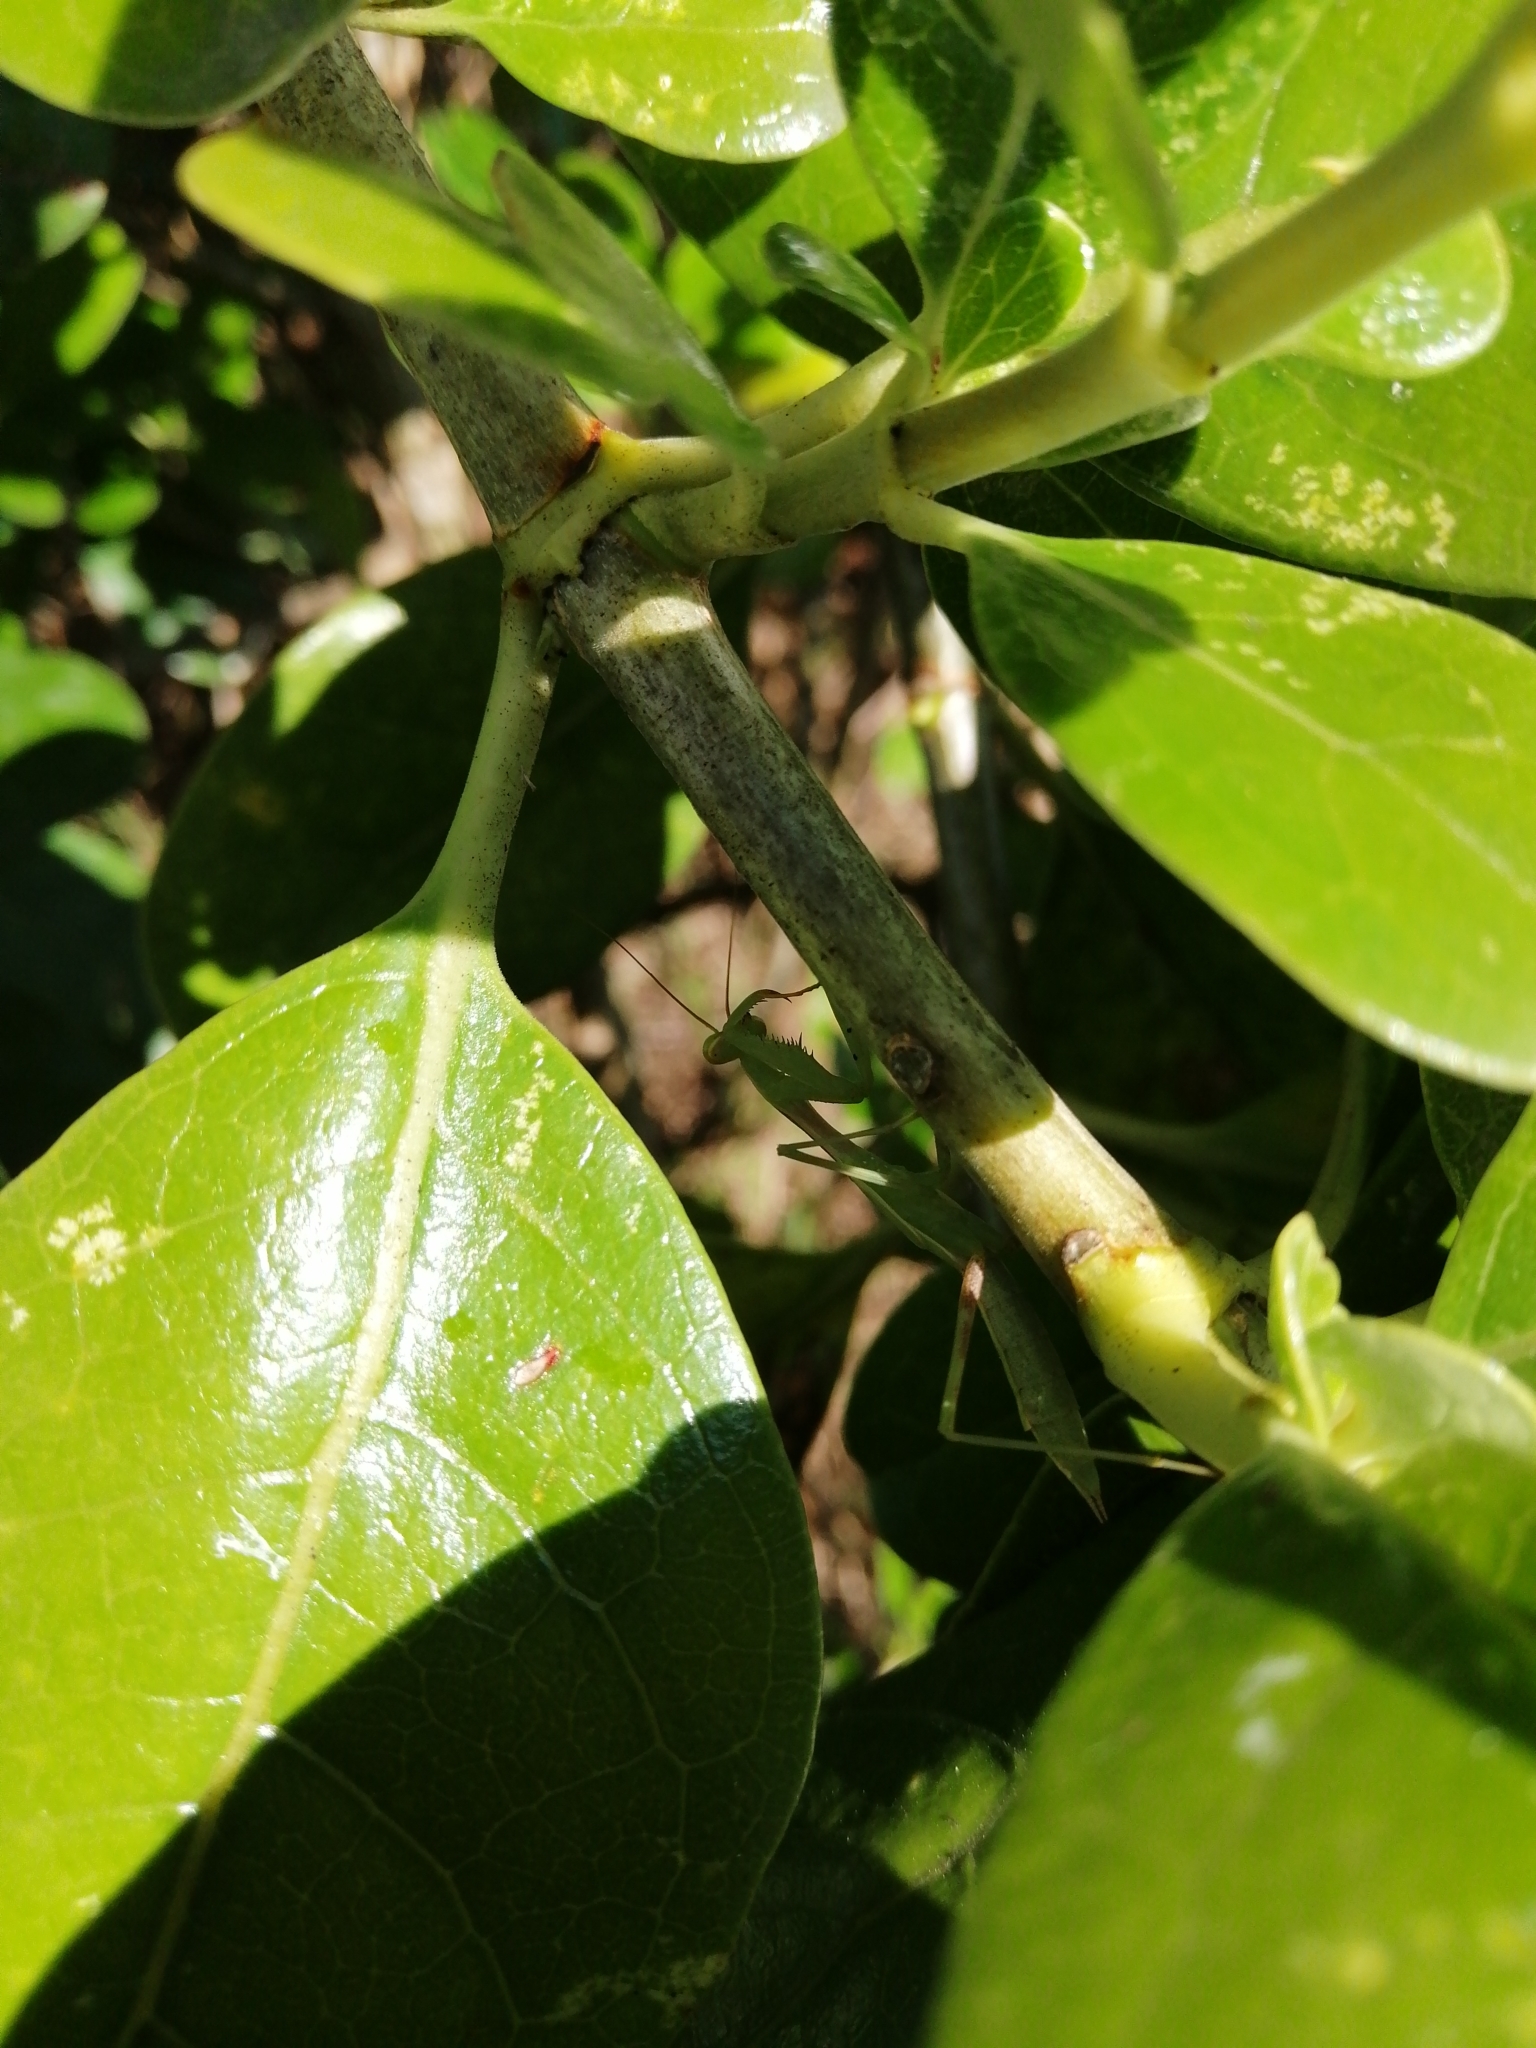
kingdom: Animalia
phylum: Arthropoda
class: Insecta
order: Mantodea
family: Miomantidae
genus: Miomantis
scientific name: Miomantis caffra
